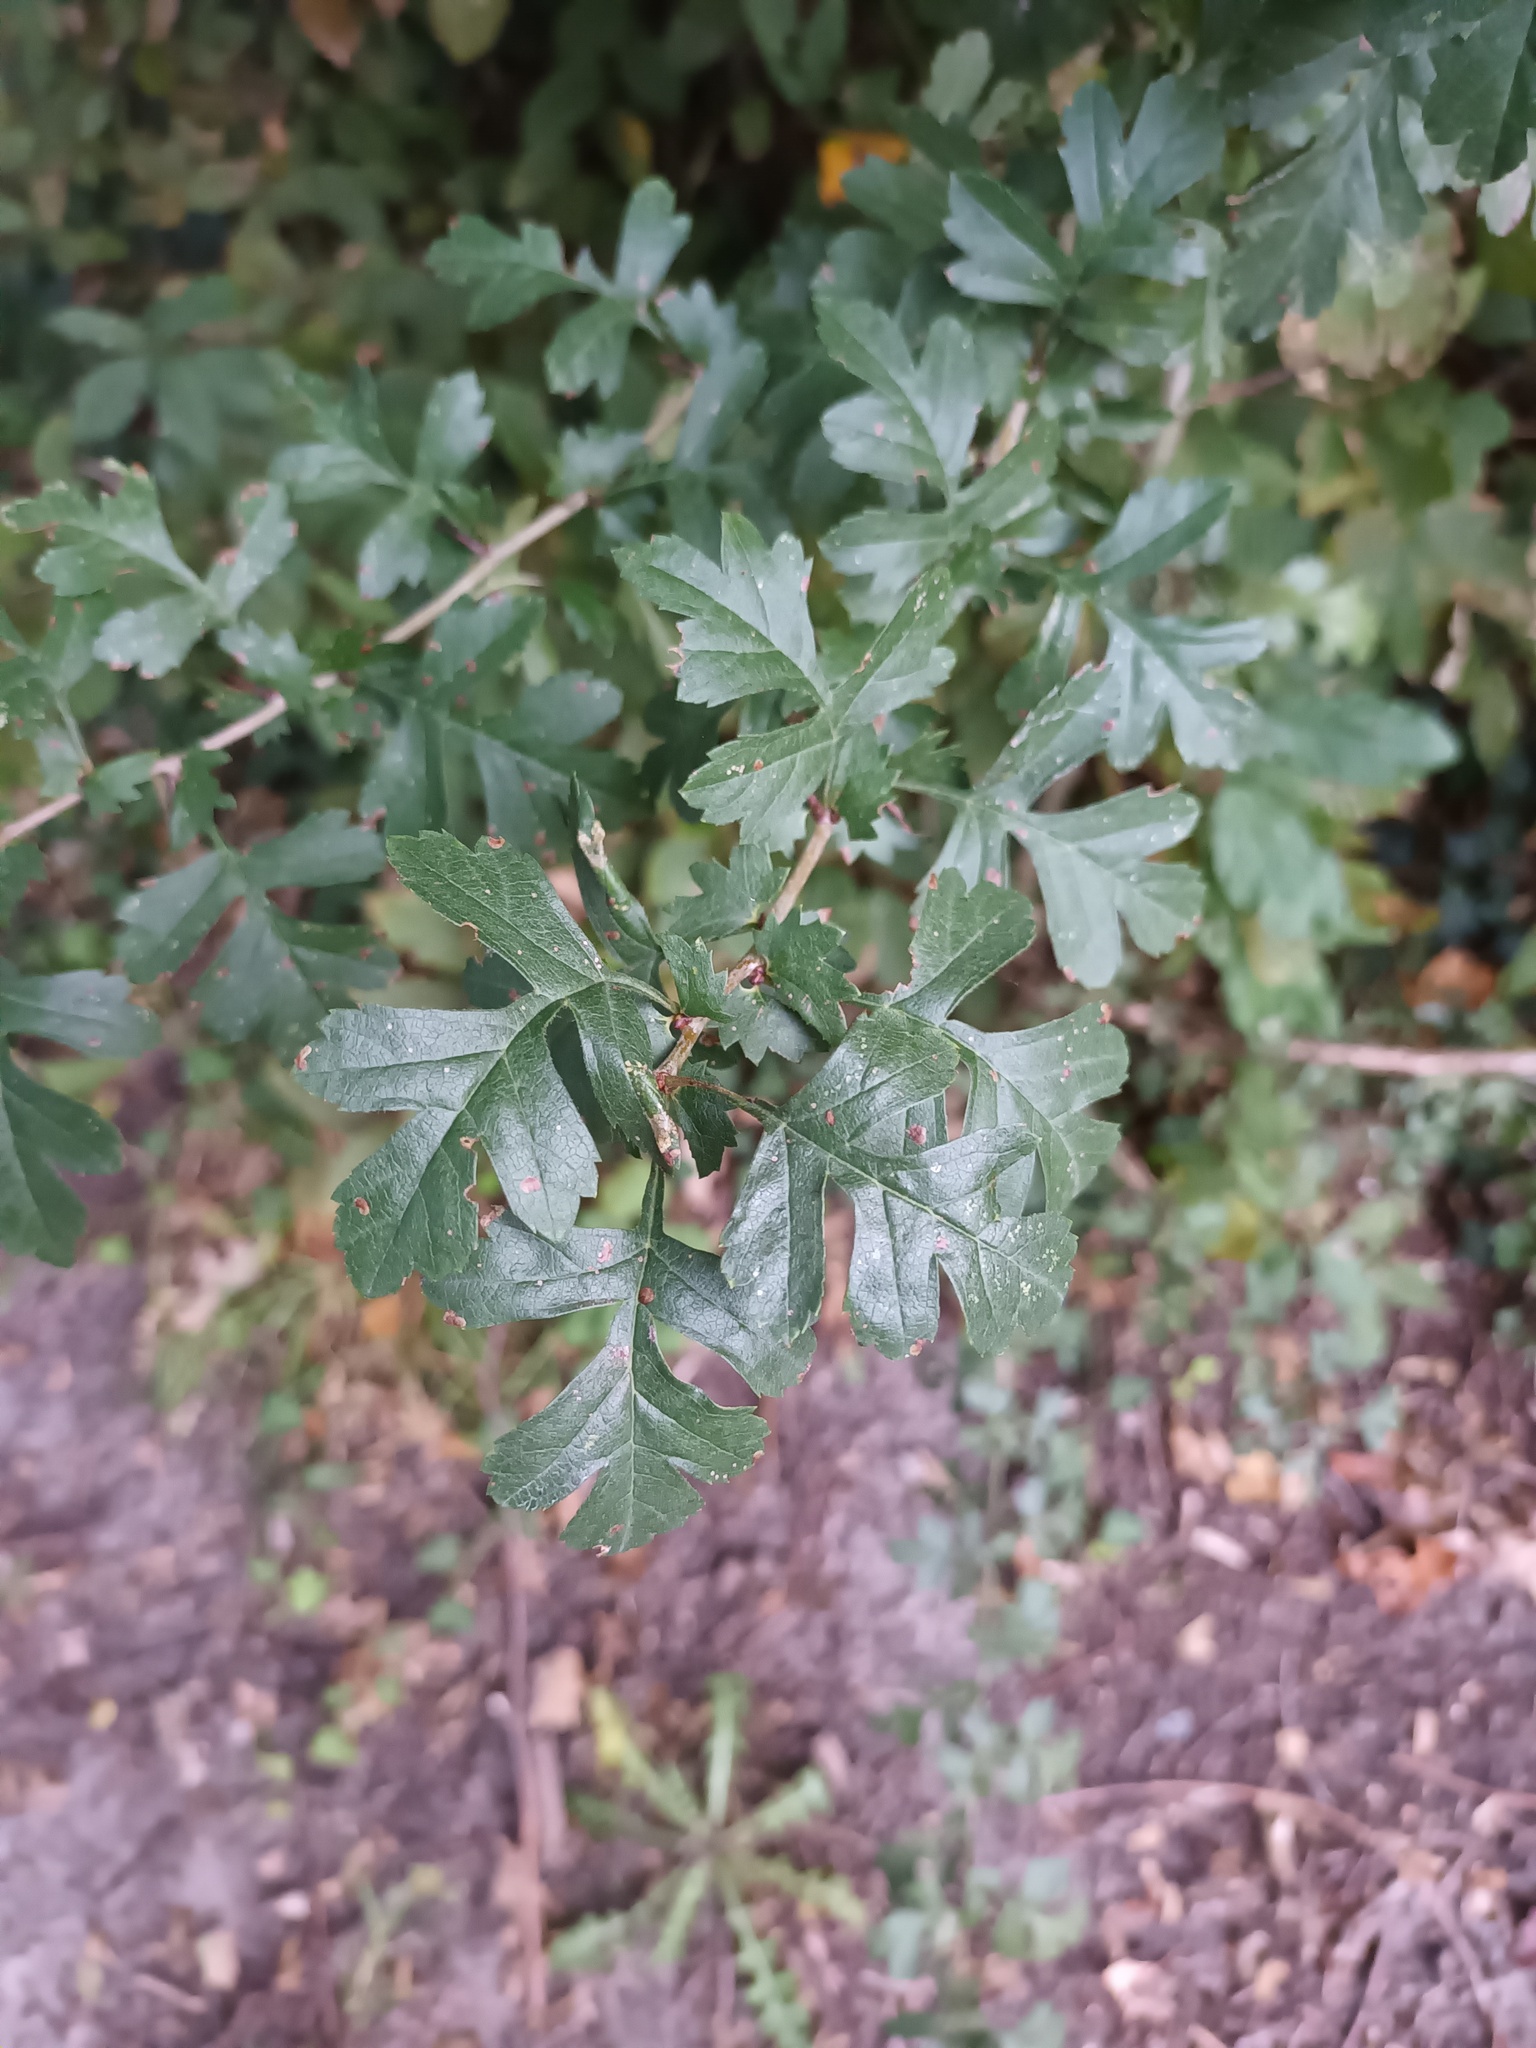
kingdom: Plantae
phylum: Tracheophyta
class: Magnoliopsida
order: Rosales
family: Rosaceae
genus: Crataegus
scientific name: Crataegus monogyna
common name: Hawthorn
